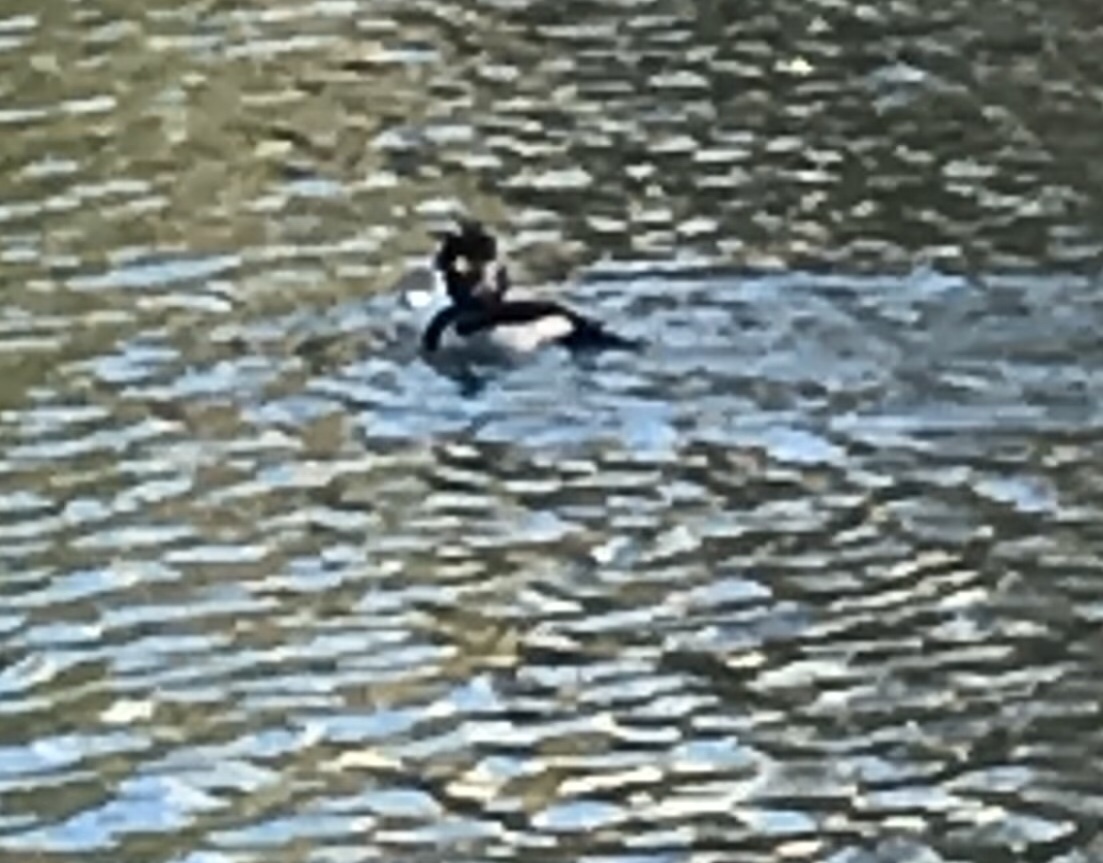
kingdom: Animalia
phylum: Chordata
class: Aves
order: Anseriformes
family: Anatidae
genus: Aythya
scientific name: Aythya collaris
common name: Ring-necked duck
